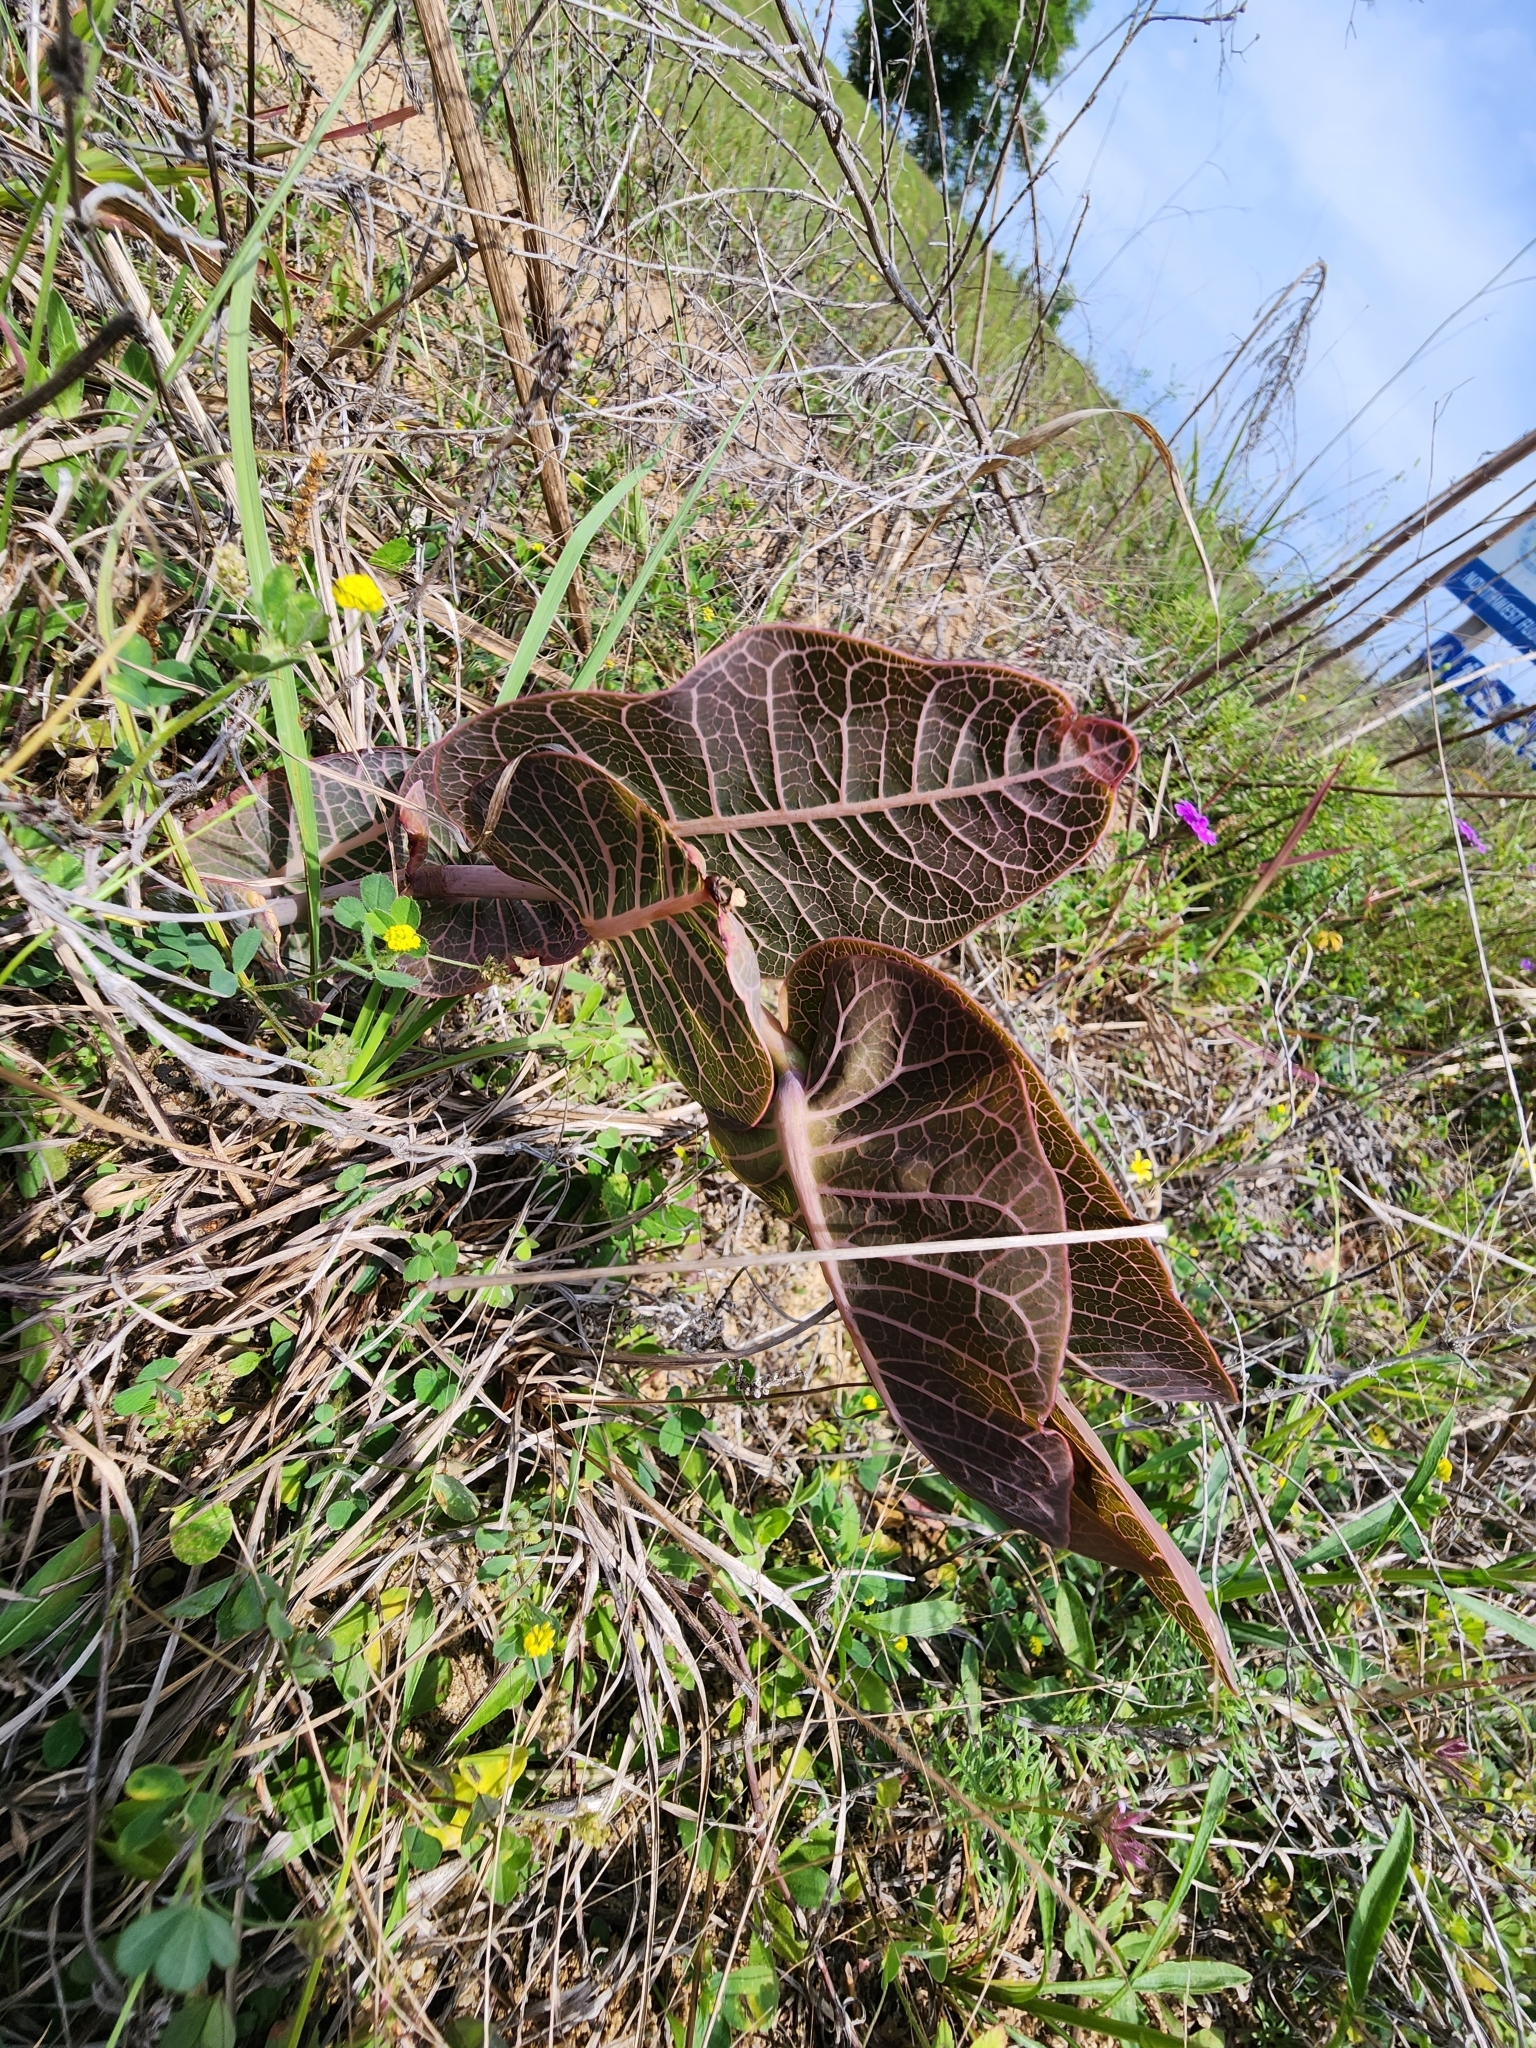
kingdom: Plantae
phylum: Tracheophyta
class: Magnoliopsida
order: Gentianales
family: Apocynaceae
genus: Asclepias
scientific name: Asclepias humistrata
